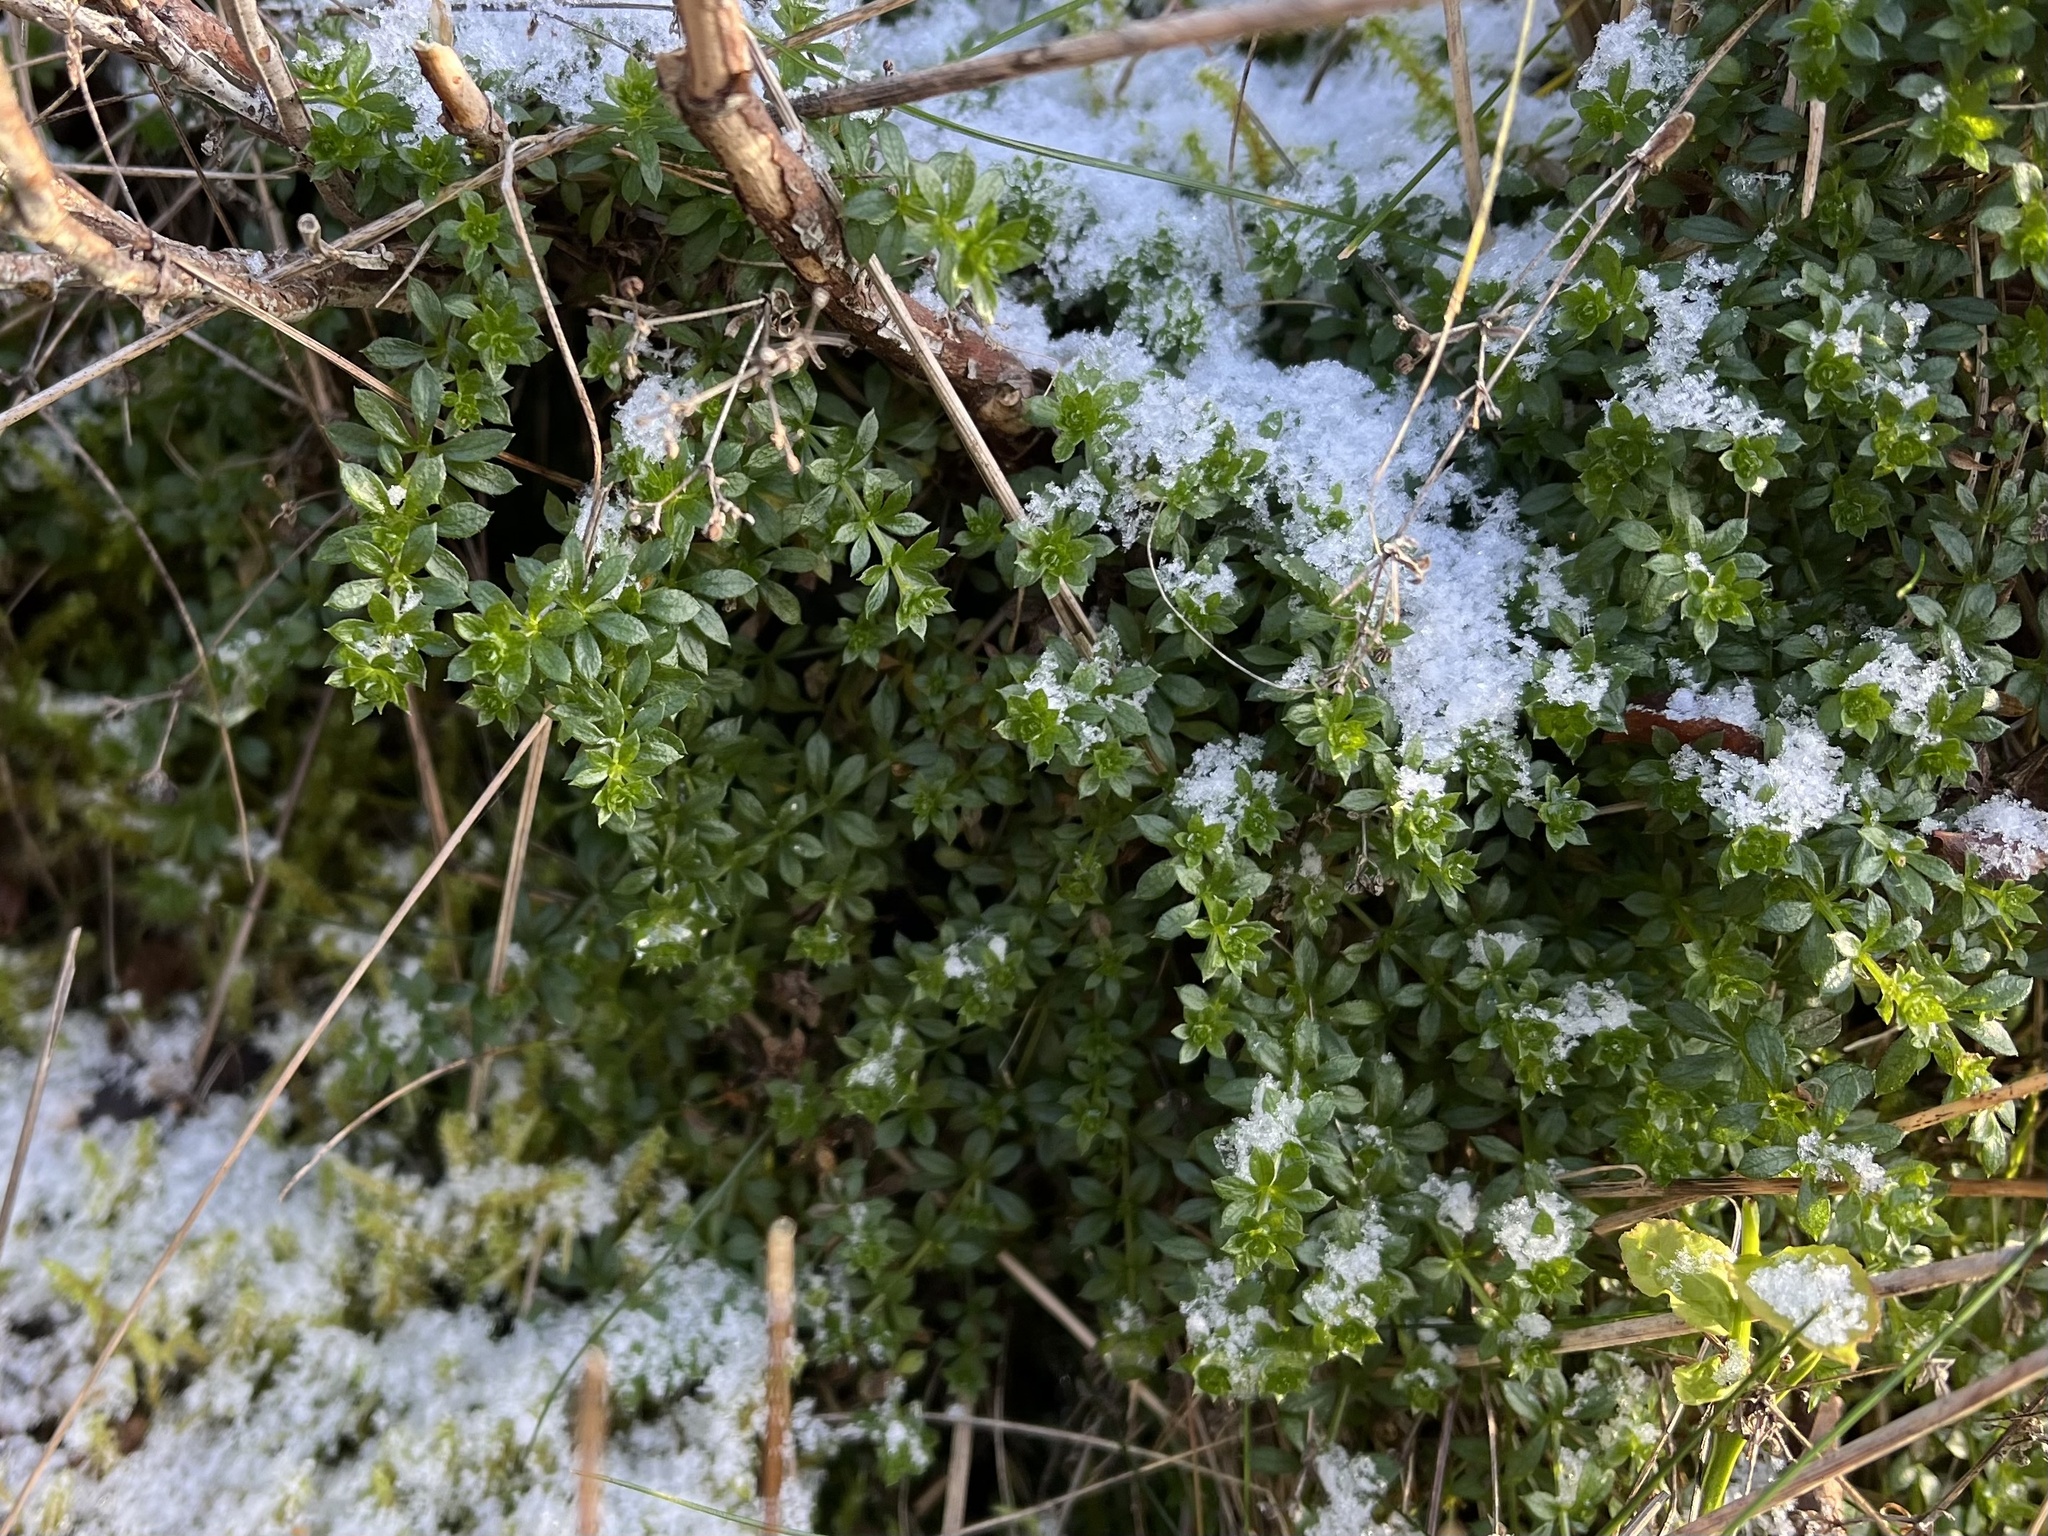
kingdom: Plantae
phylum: Tracheophyta
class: Magnoliopsida
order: Gentianales
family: Rubiaceae
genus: Galium
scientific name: Galium saxatile
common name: Heath bedstraw
